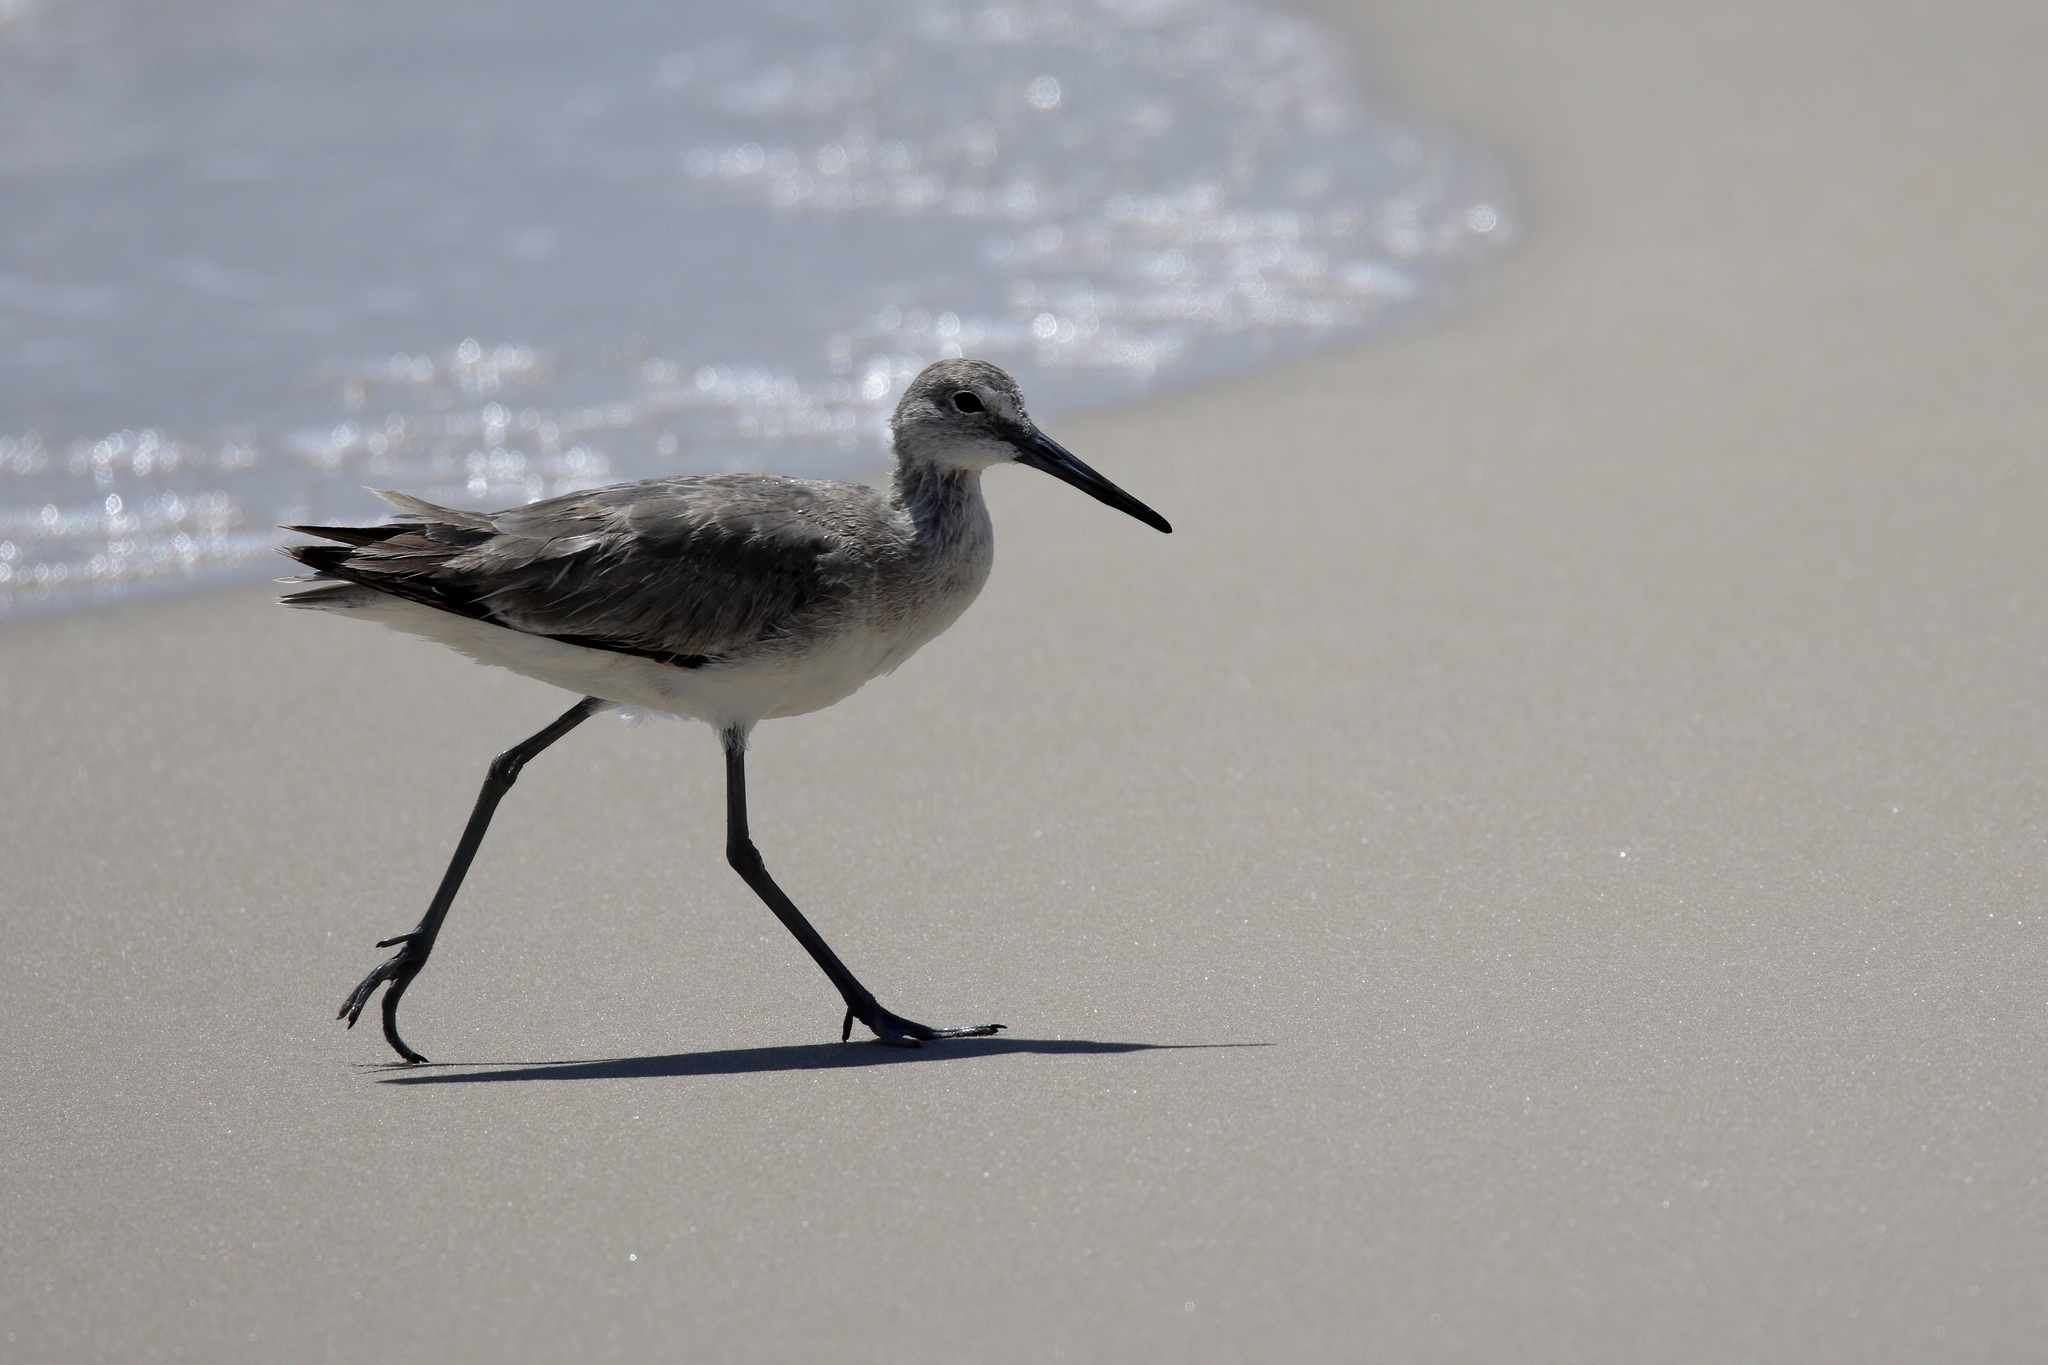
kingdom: Animalia
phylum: Chordata
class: Aves
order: Charadriiformes
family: Scolopacidae
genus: Tringa
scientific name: Tringa semipalmata
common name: Willet
